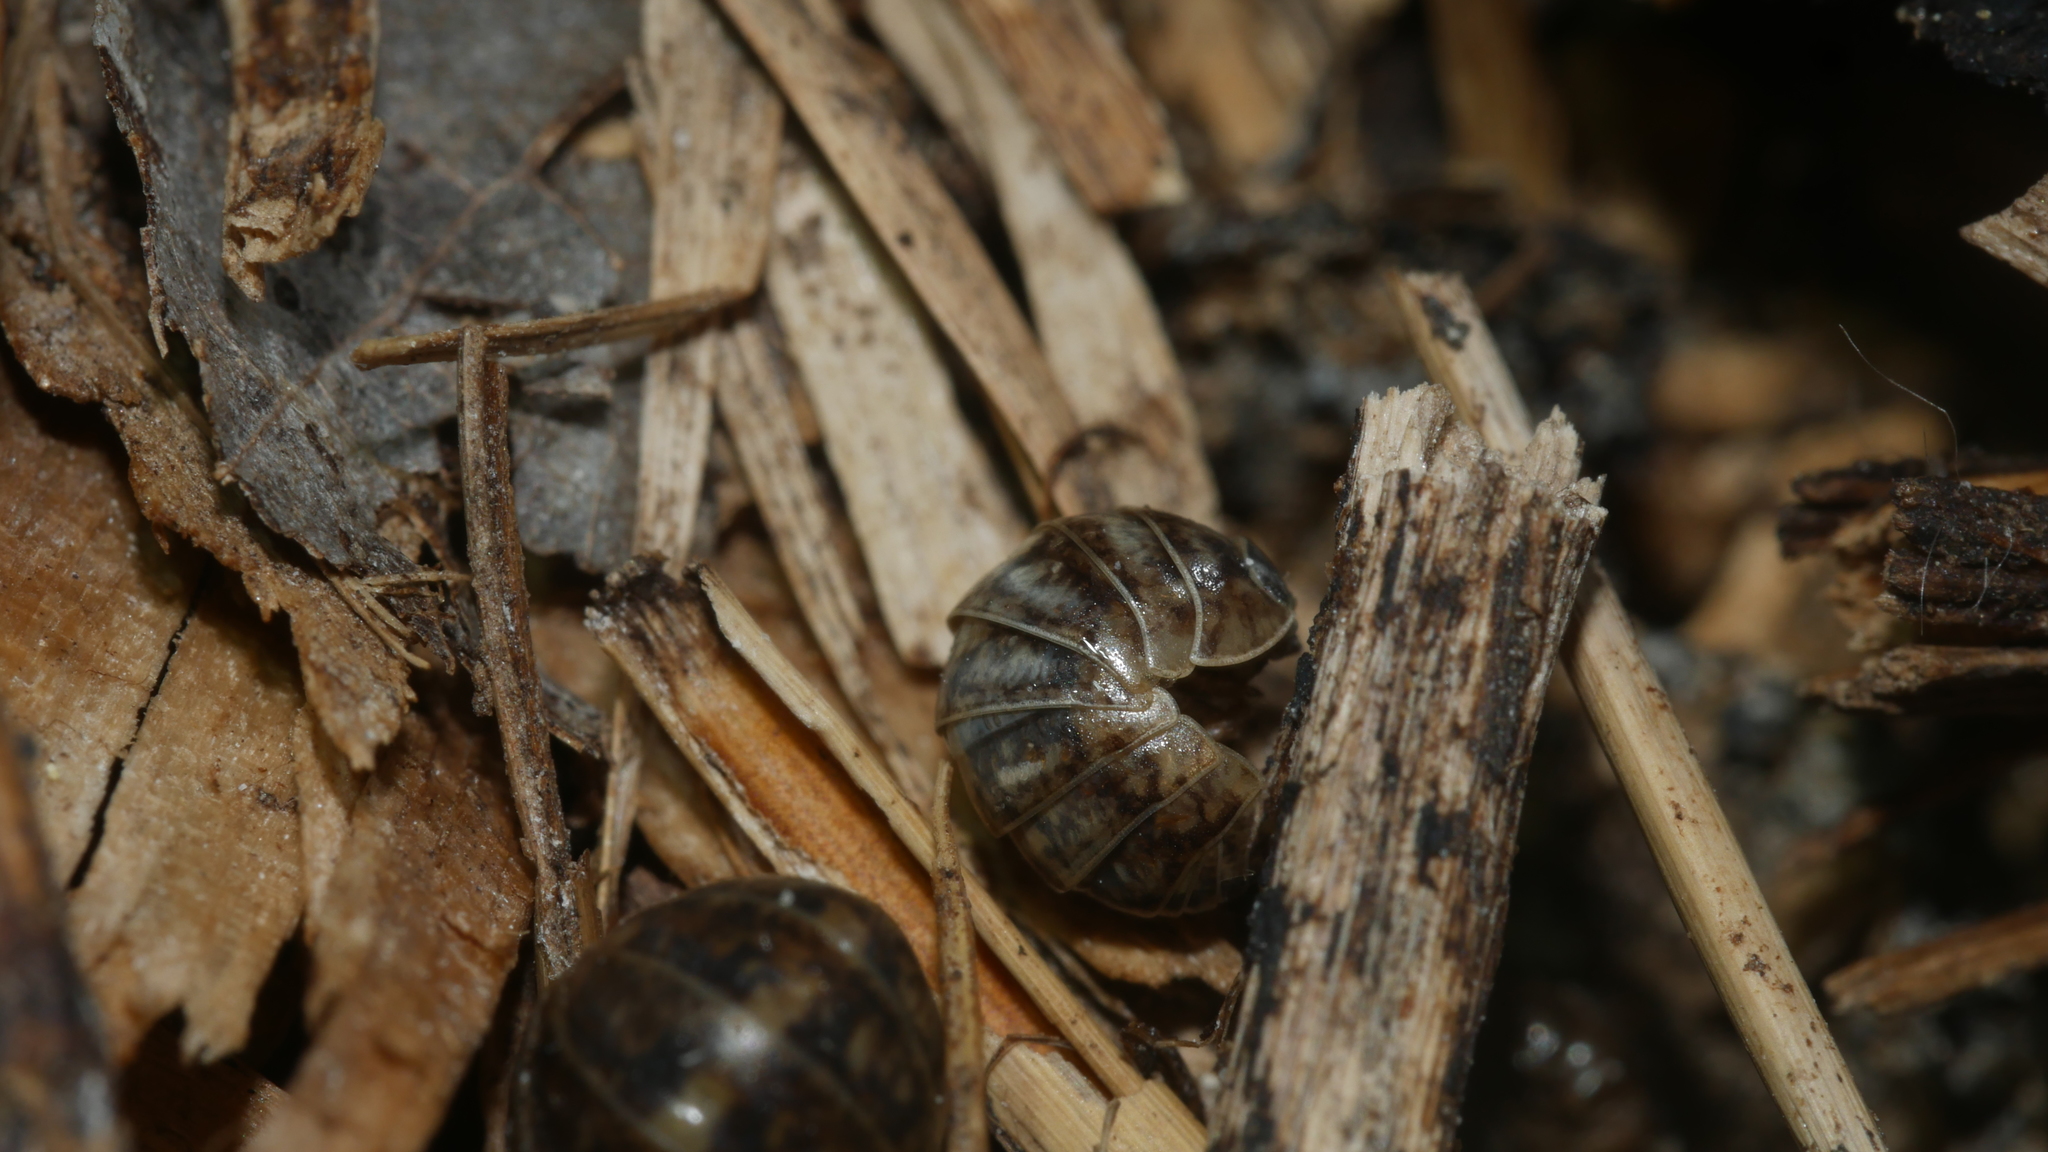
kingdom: Animalia
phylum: Arthropoda
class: Malacostraca
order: Isopoda
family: Armadillidiidae
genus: Armadillidium
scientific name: Armadillidium vulgare
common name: Common pill woodlouse
